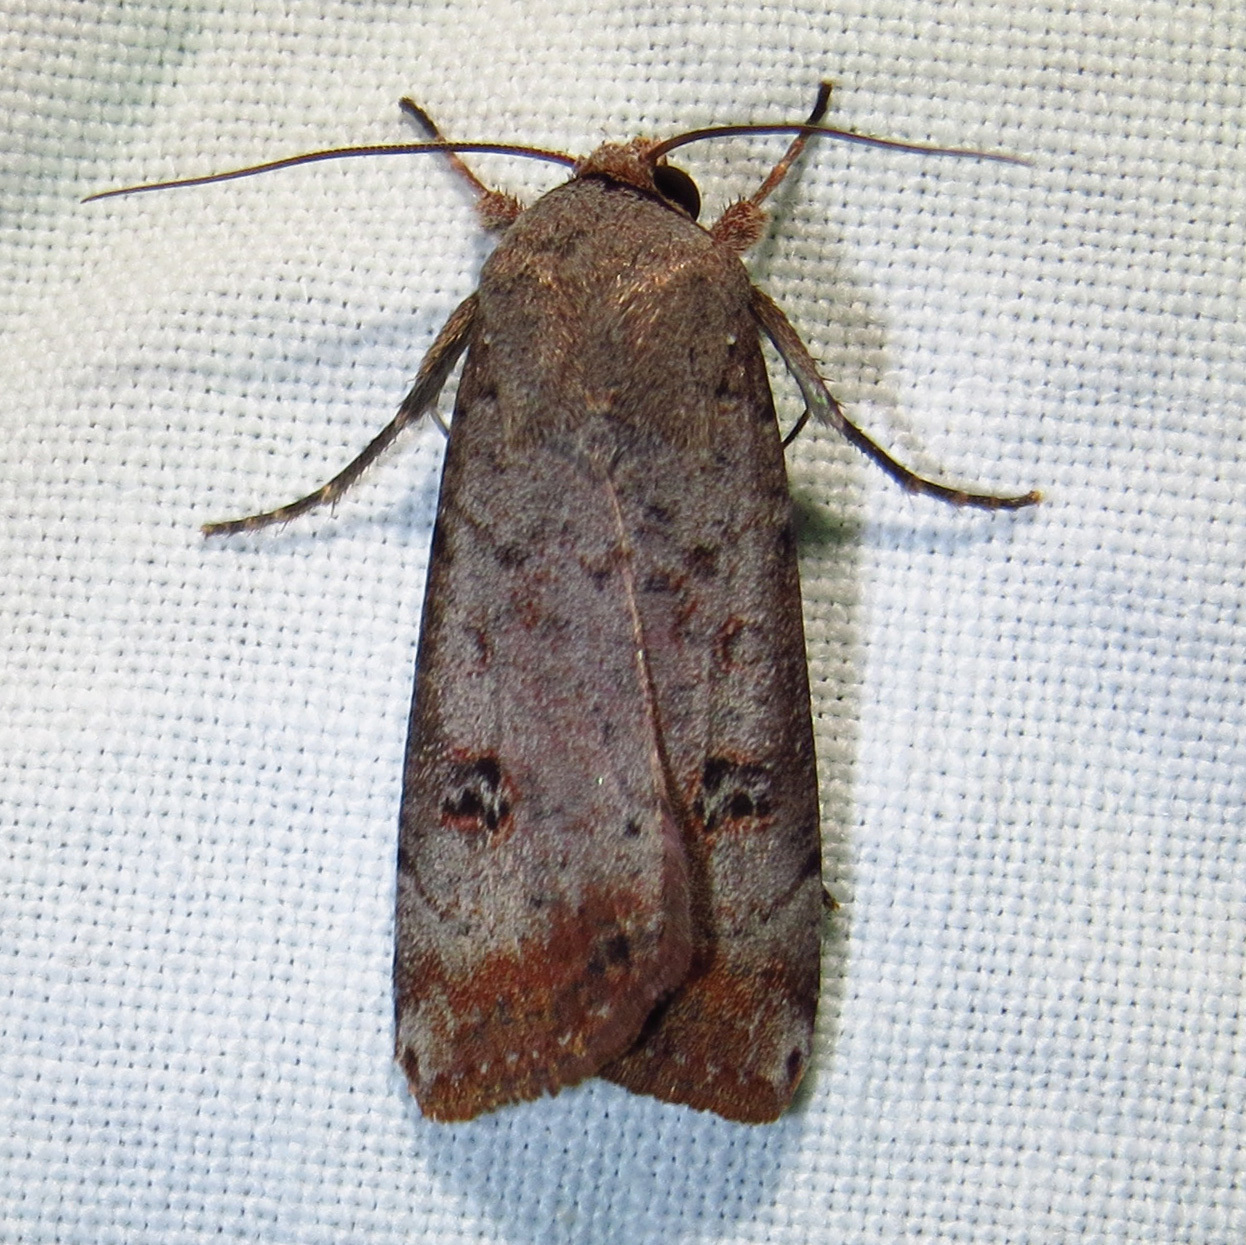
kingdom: Animalia
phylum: Arthropoda
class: Insecta
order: Lepidoptera
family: Noctuidae
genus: Anicla
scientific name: Anicla infecta
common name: Green cutworm
